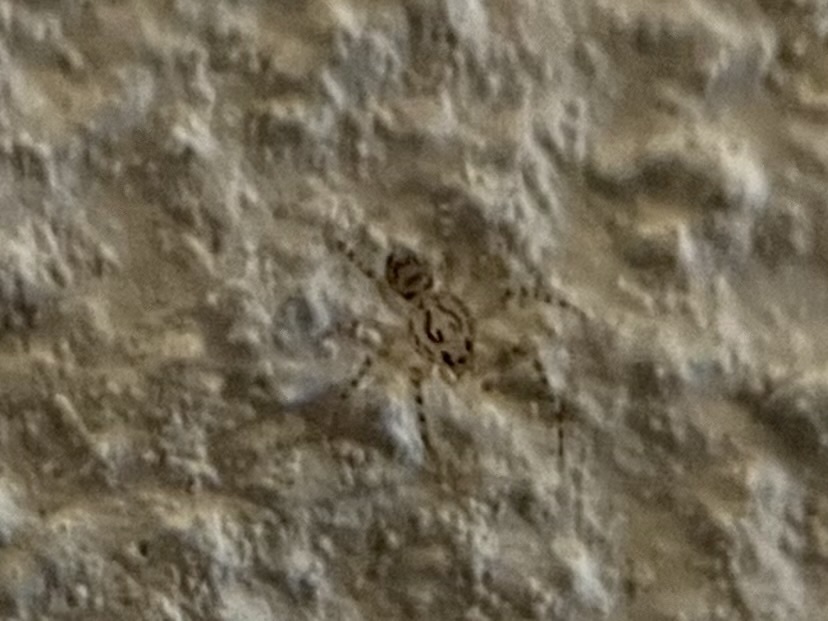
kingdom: Animalia
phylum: Arthropoda
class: Arachnida
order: Araneae
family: Scytodidae
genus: Scytodes
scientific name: Scytodes thoracica
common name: Spitting spider
